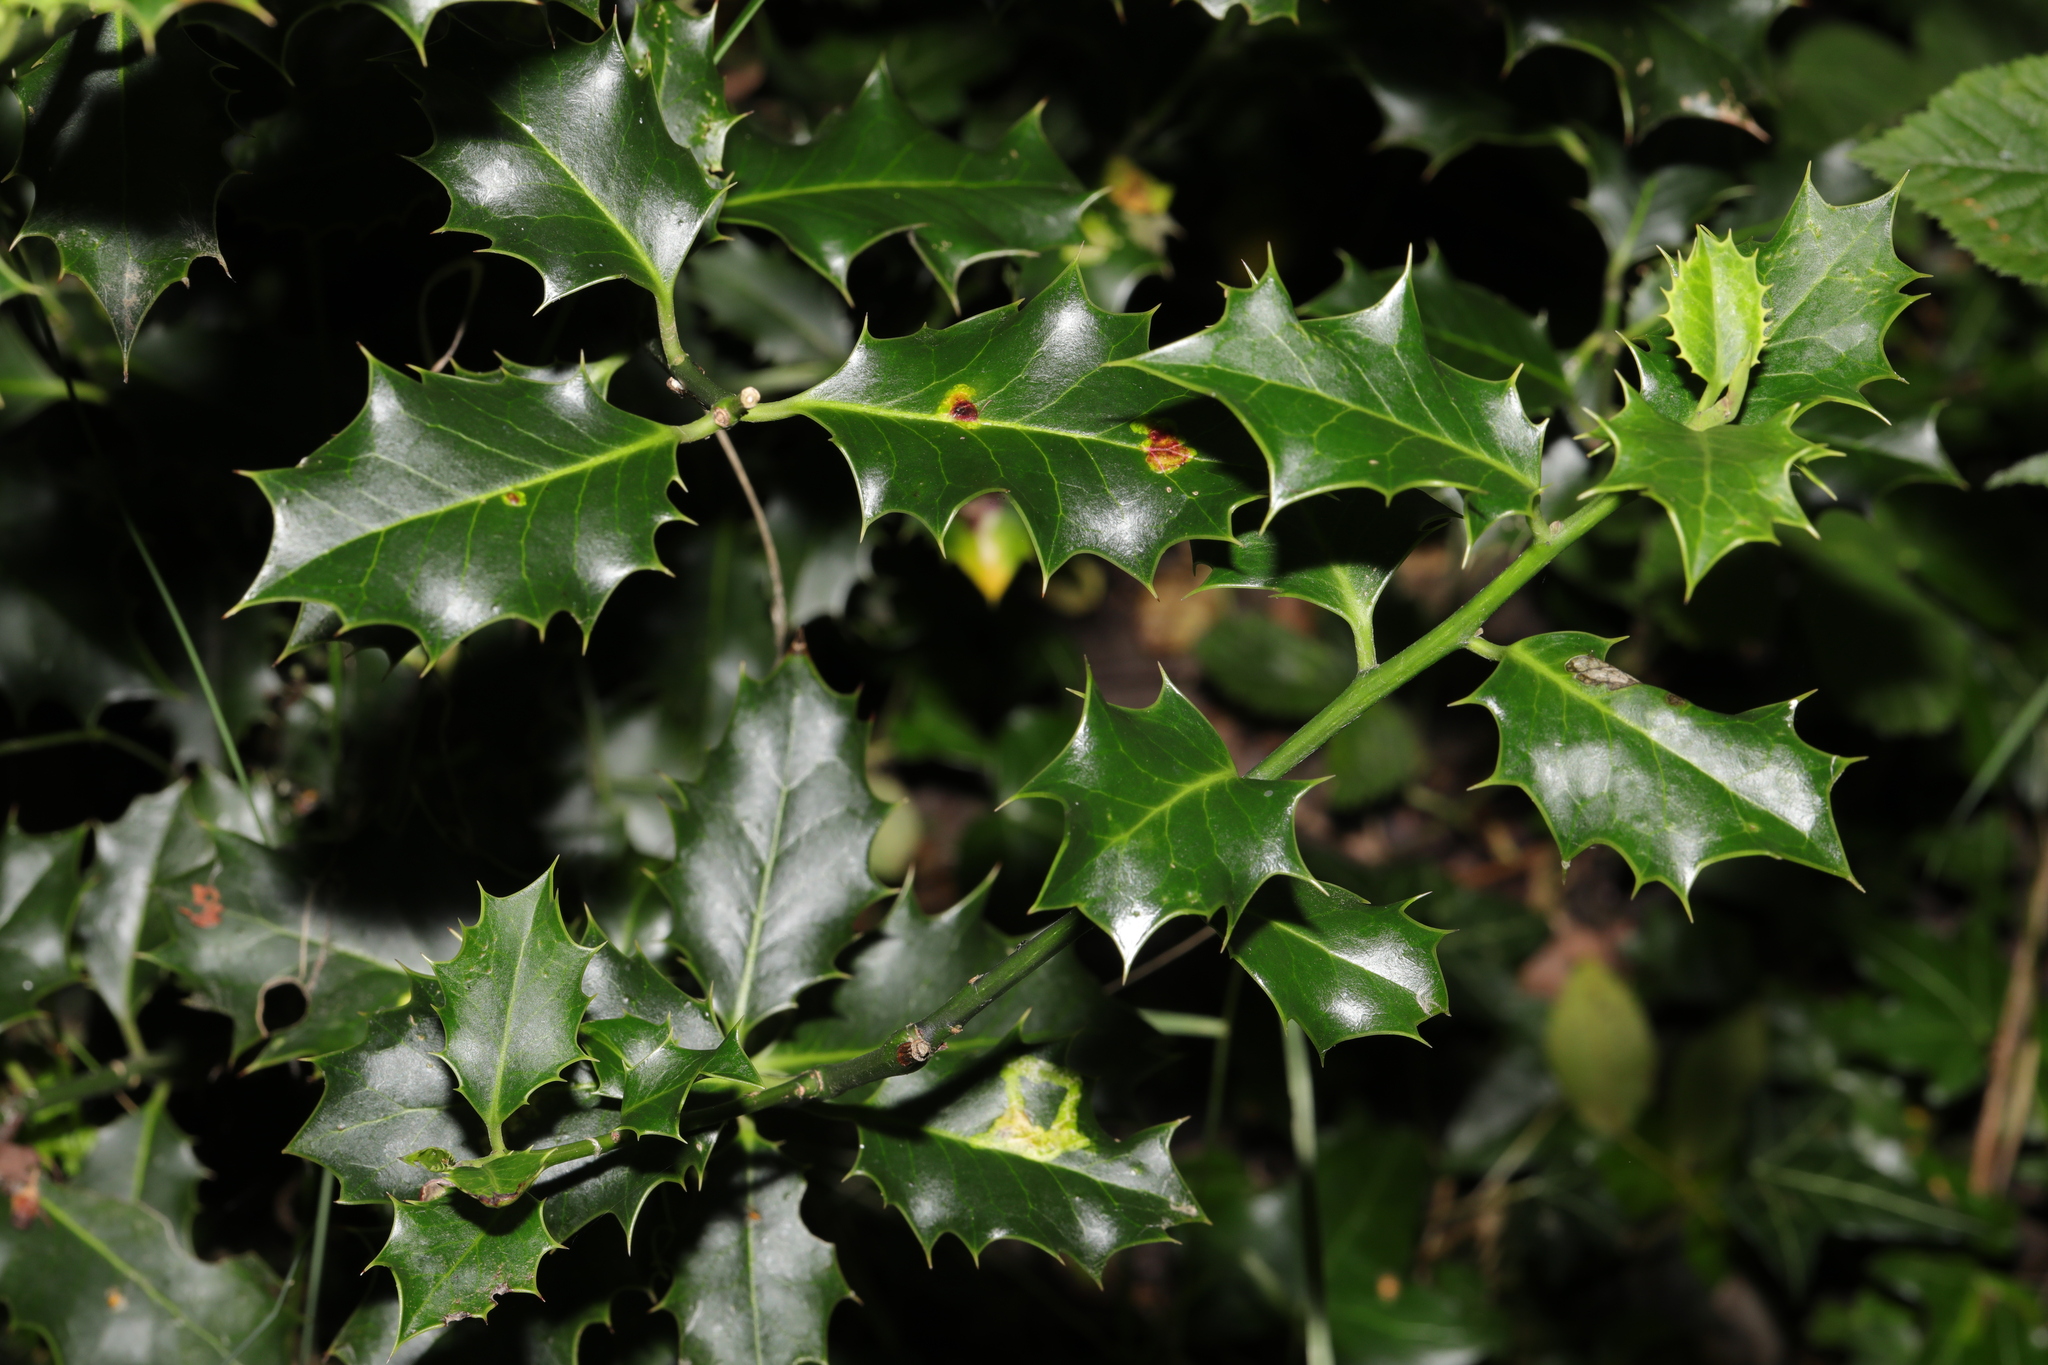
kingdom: Plantae
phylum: Tracheophyta
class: Magnoliopsida
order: Aquifoliales
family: Aquifoliaceae
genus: Ilex
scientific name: Ilex aquifolium
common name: English holly
